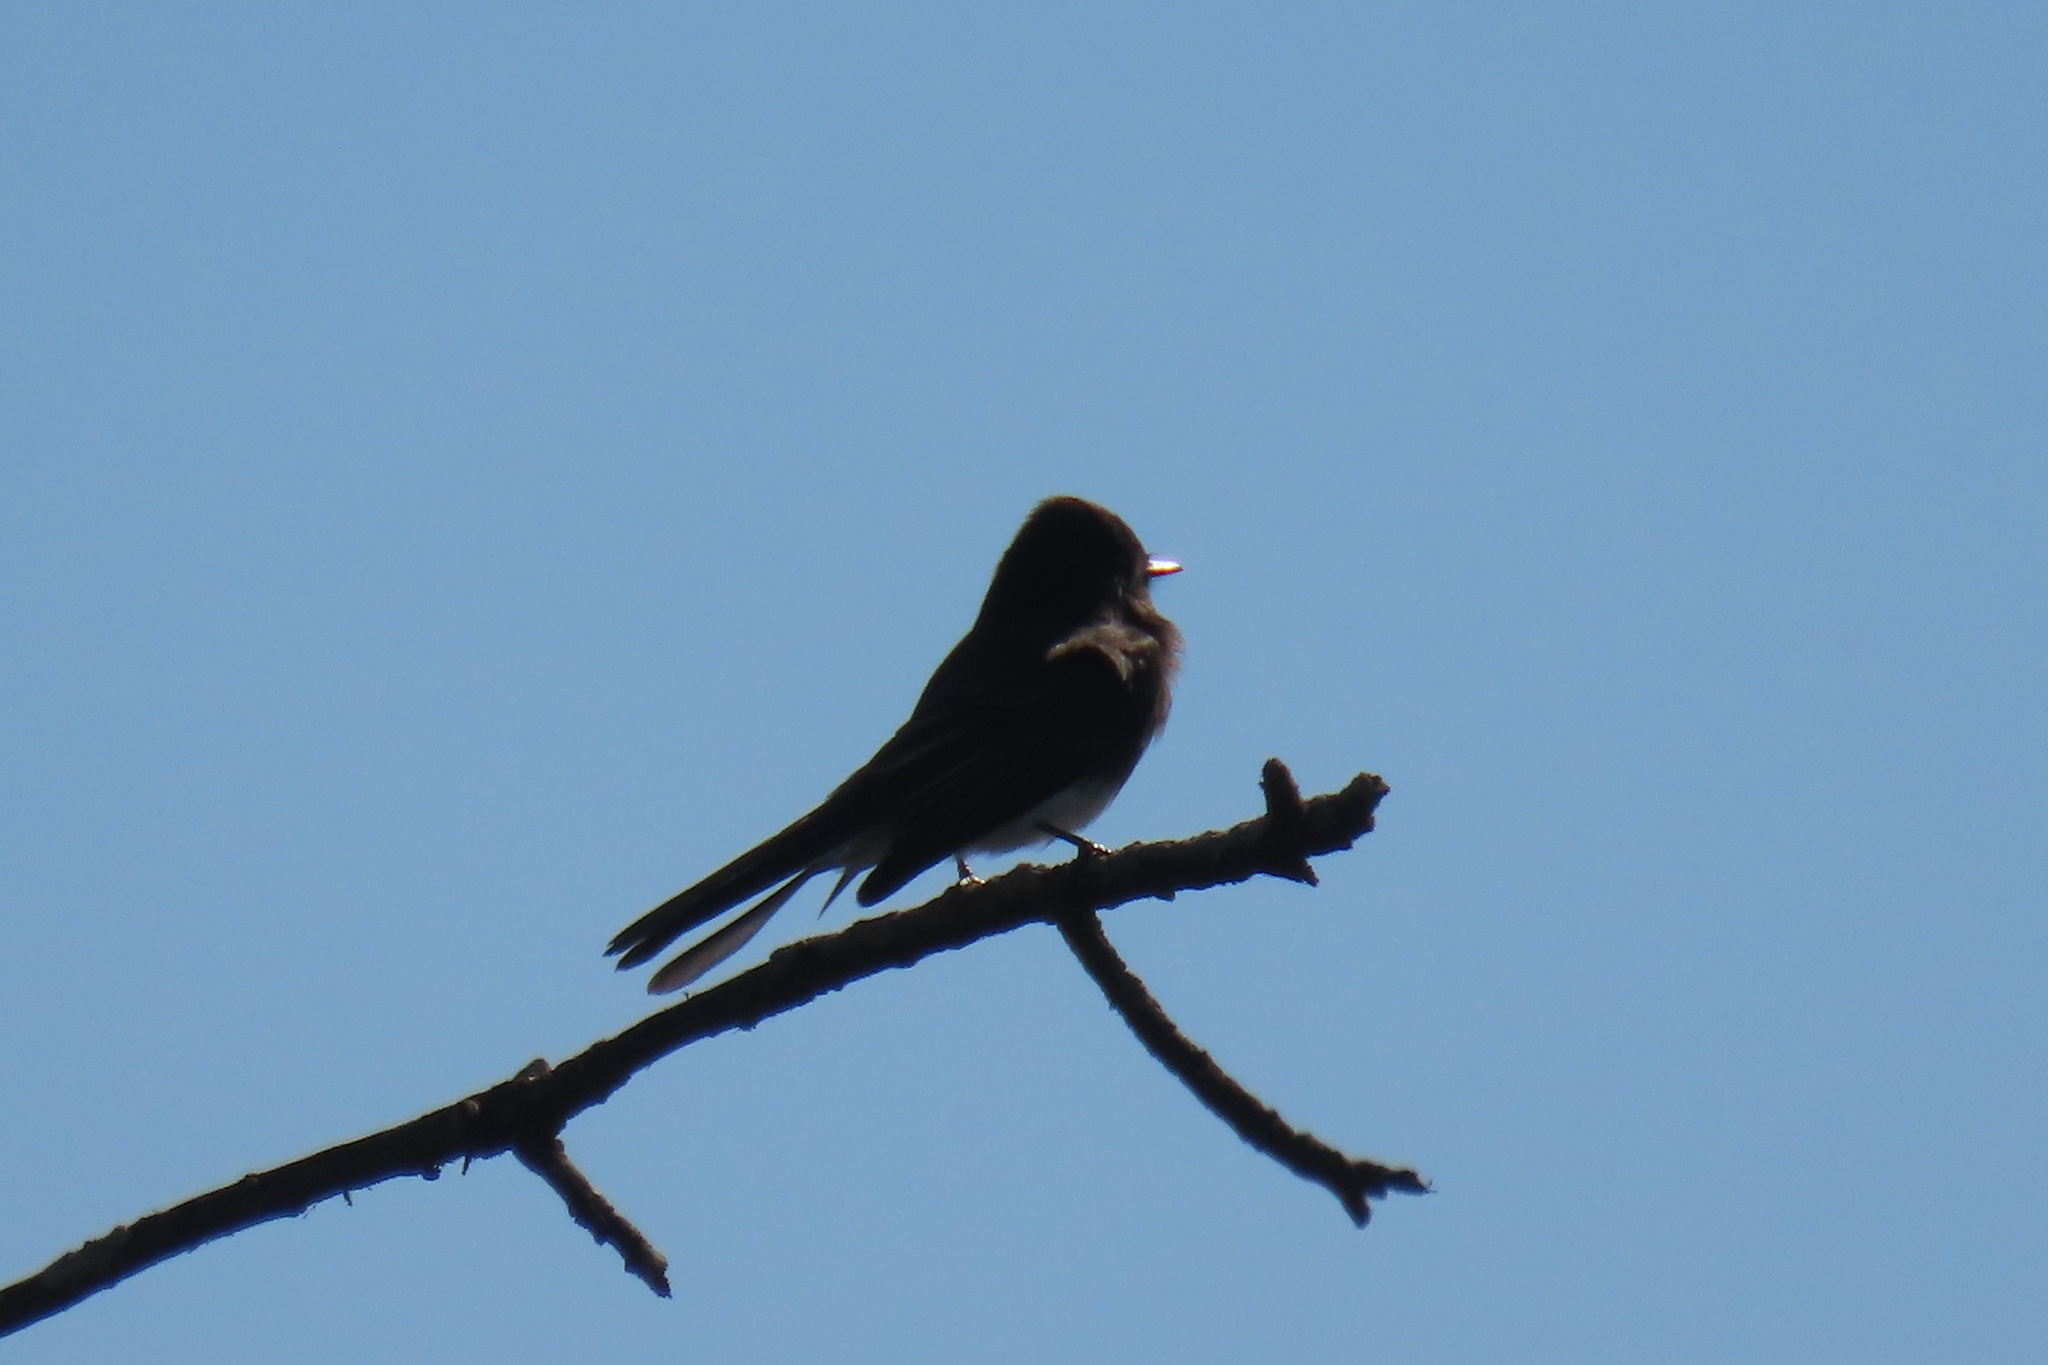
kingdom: Animalia
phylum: Chordata
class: Aves
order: Passeriformes
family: Tyrannidae
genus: Sayornis
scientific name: Sayornis nigricans
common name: Black phoebe
